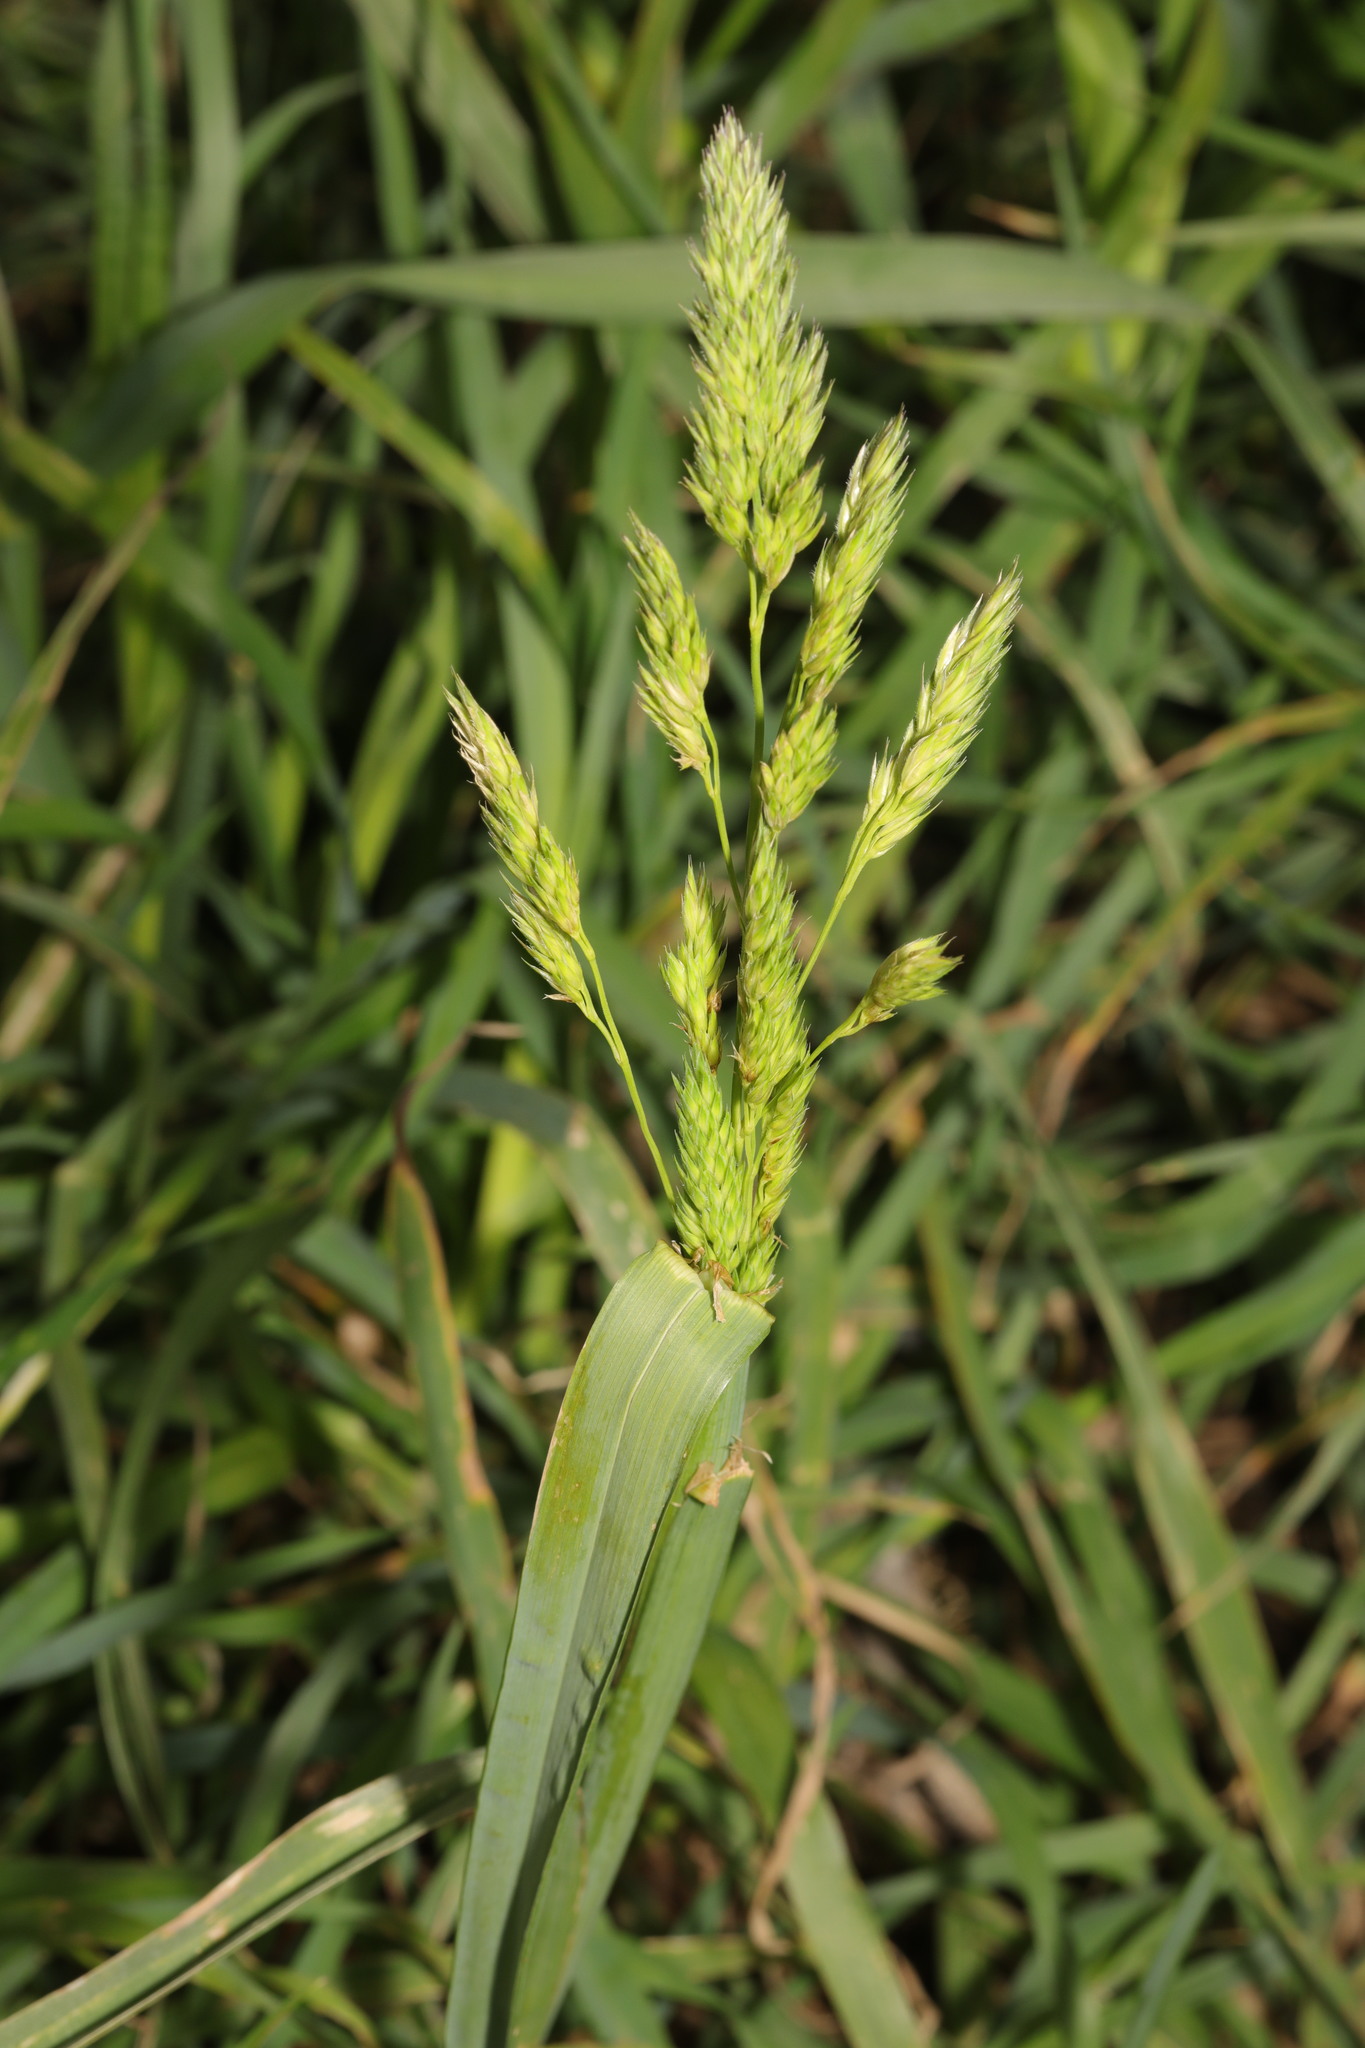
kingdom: Plantae
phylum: Tracheophyta
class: Liliopsida
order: Poales
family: Poaceae
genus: Dactylis
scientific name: Dactylis glomerata
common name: Orchardgrass
